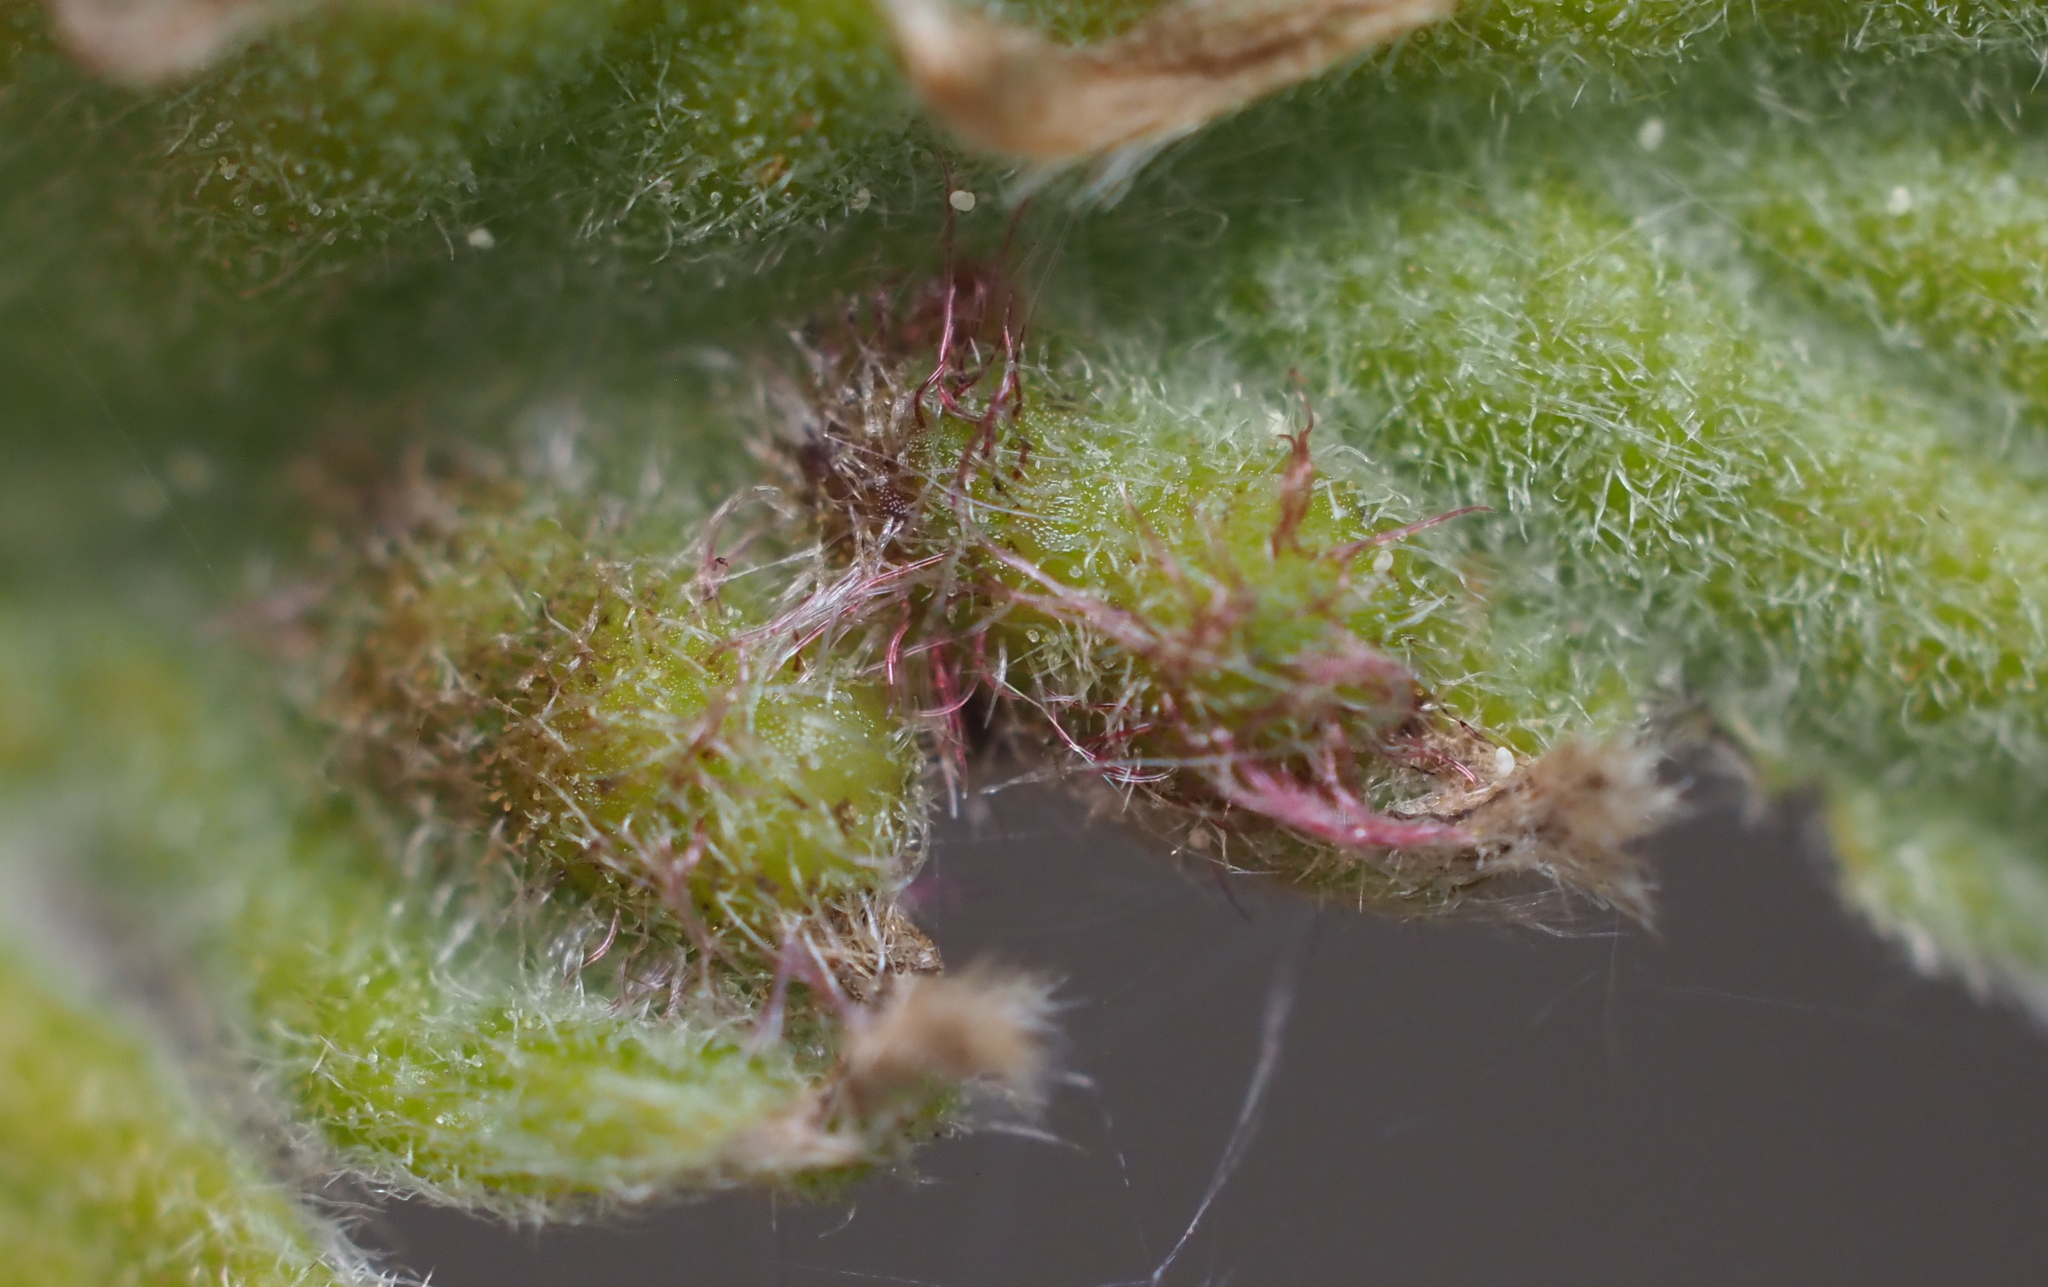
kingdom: Animalia
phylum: Arthropoda
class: Insecta
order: Hymenoptera
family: Cynipidae
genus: Neuroterus
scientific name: Neuroterus
